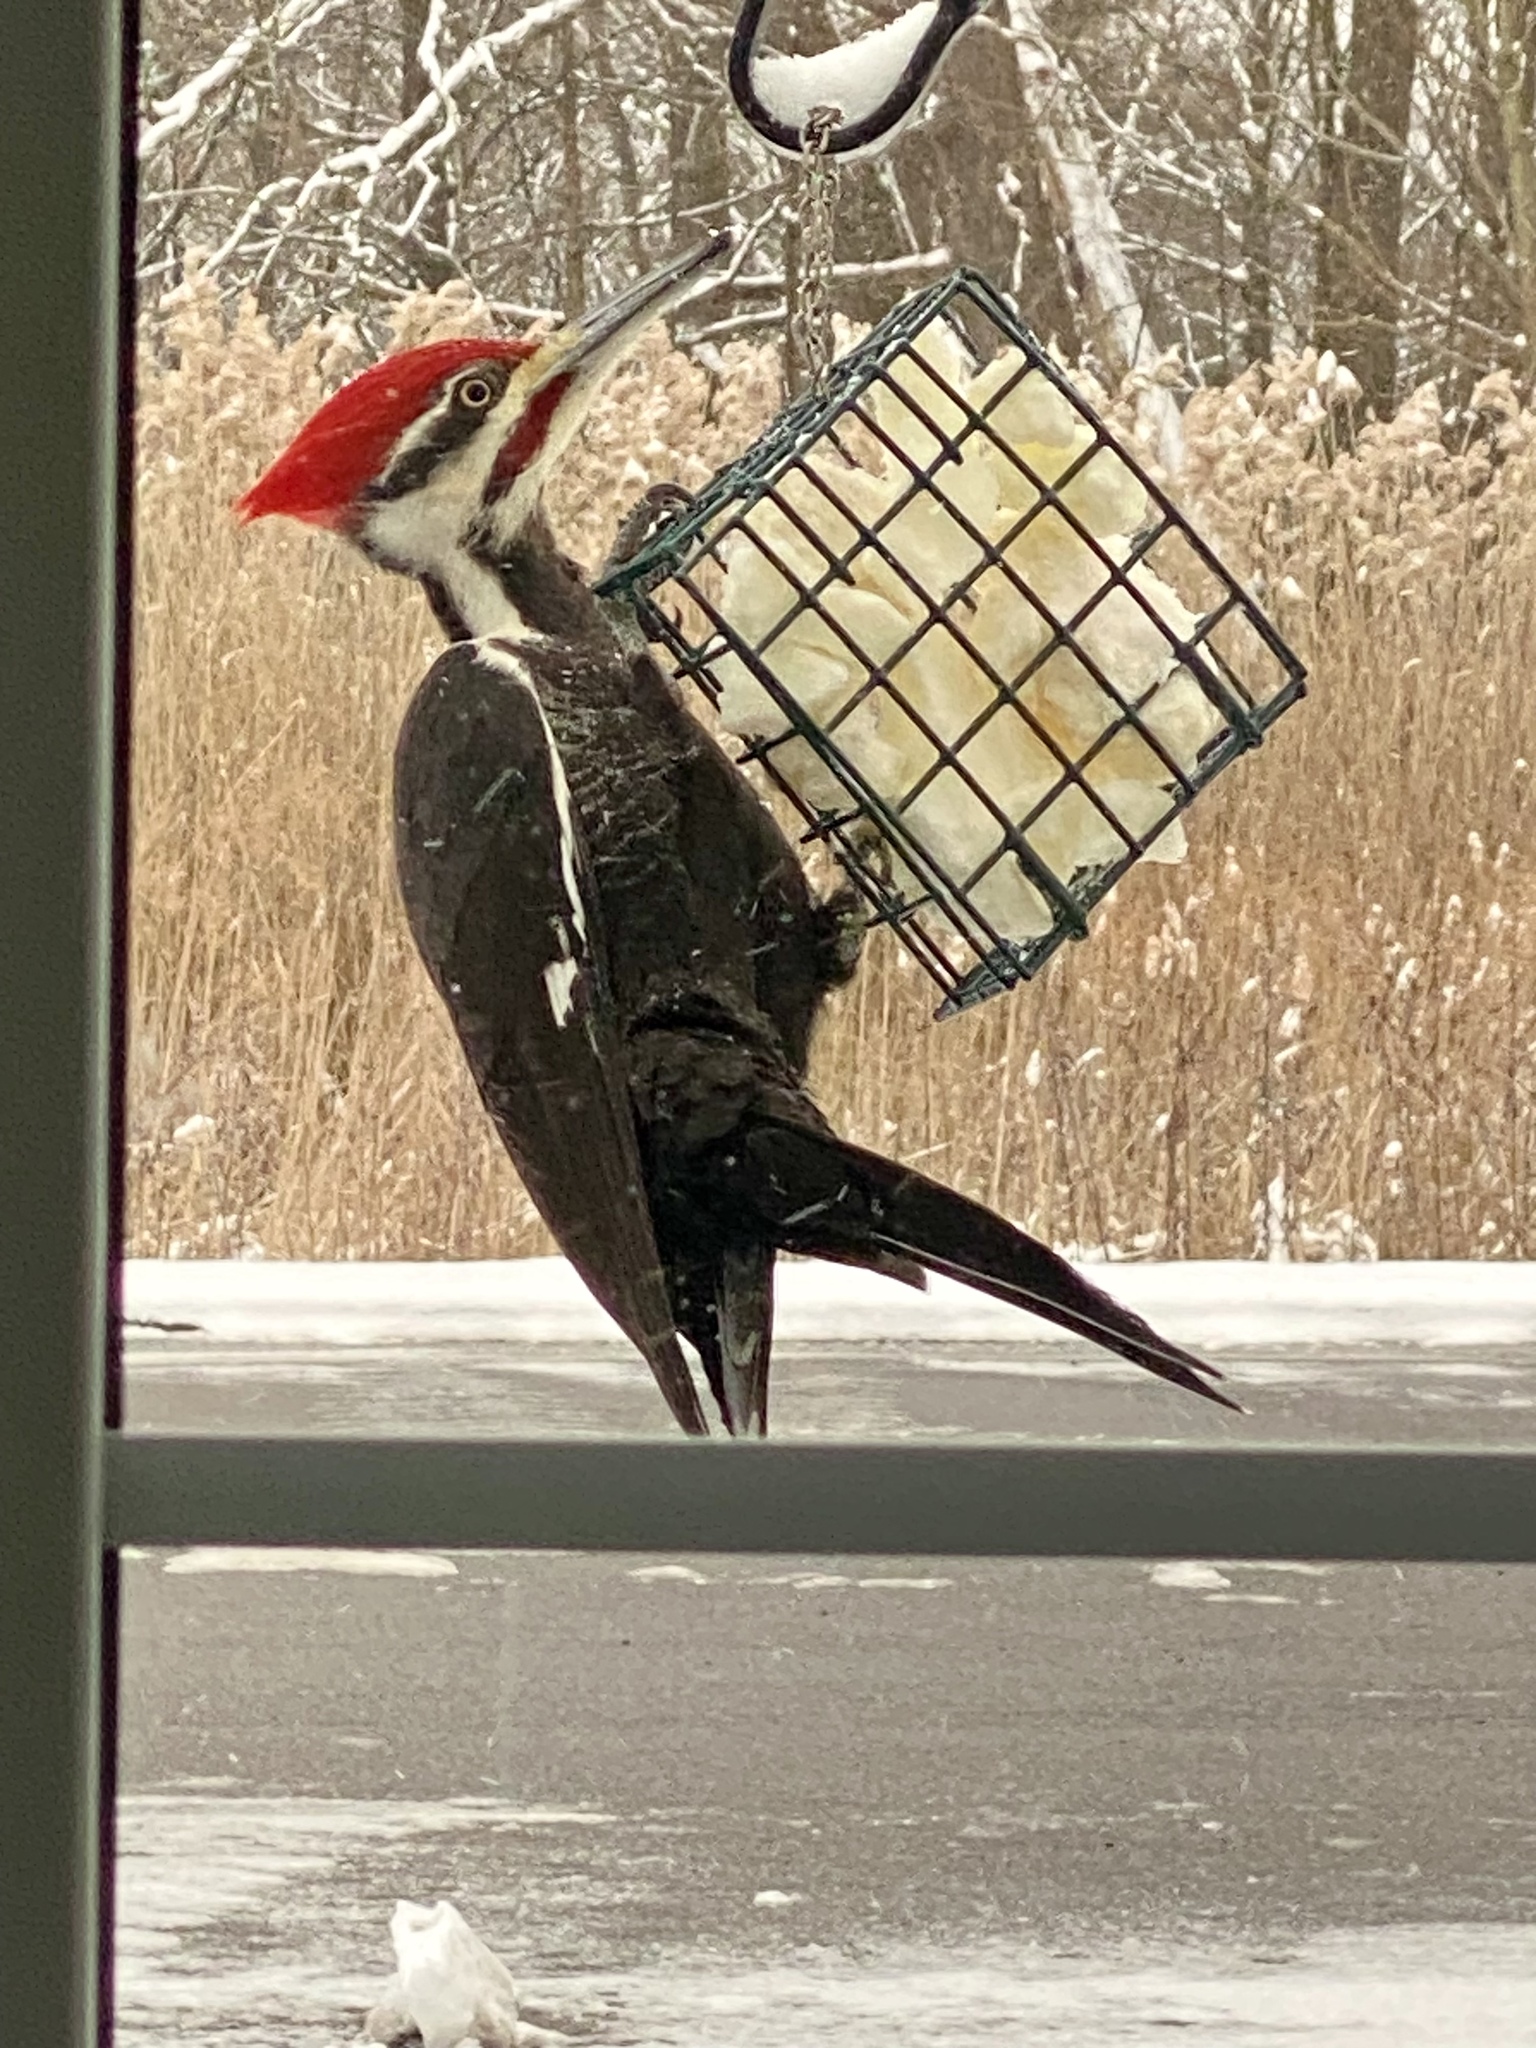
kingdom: Animalia
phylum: Chordata
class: Aves
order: Piciformes
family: Picidae
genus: Dryocopus
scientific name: Dryocopus pileatus
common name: Pileated woodpecker
